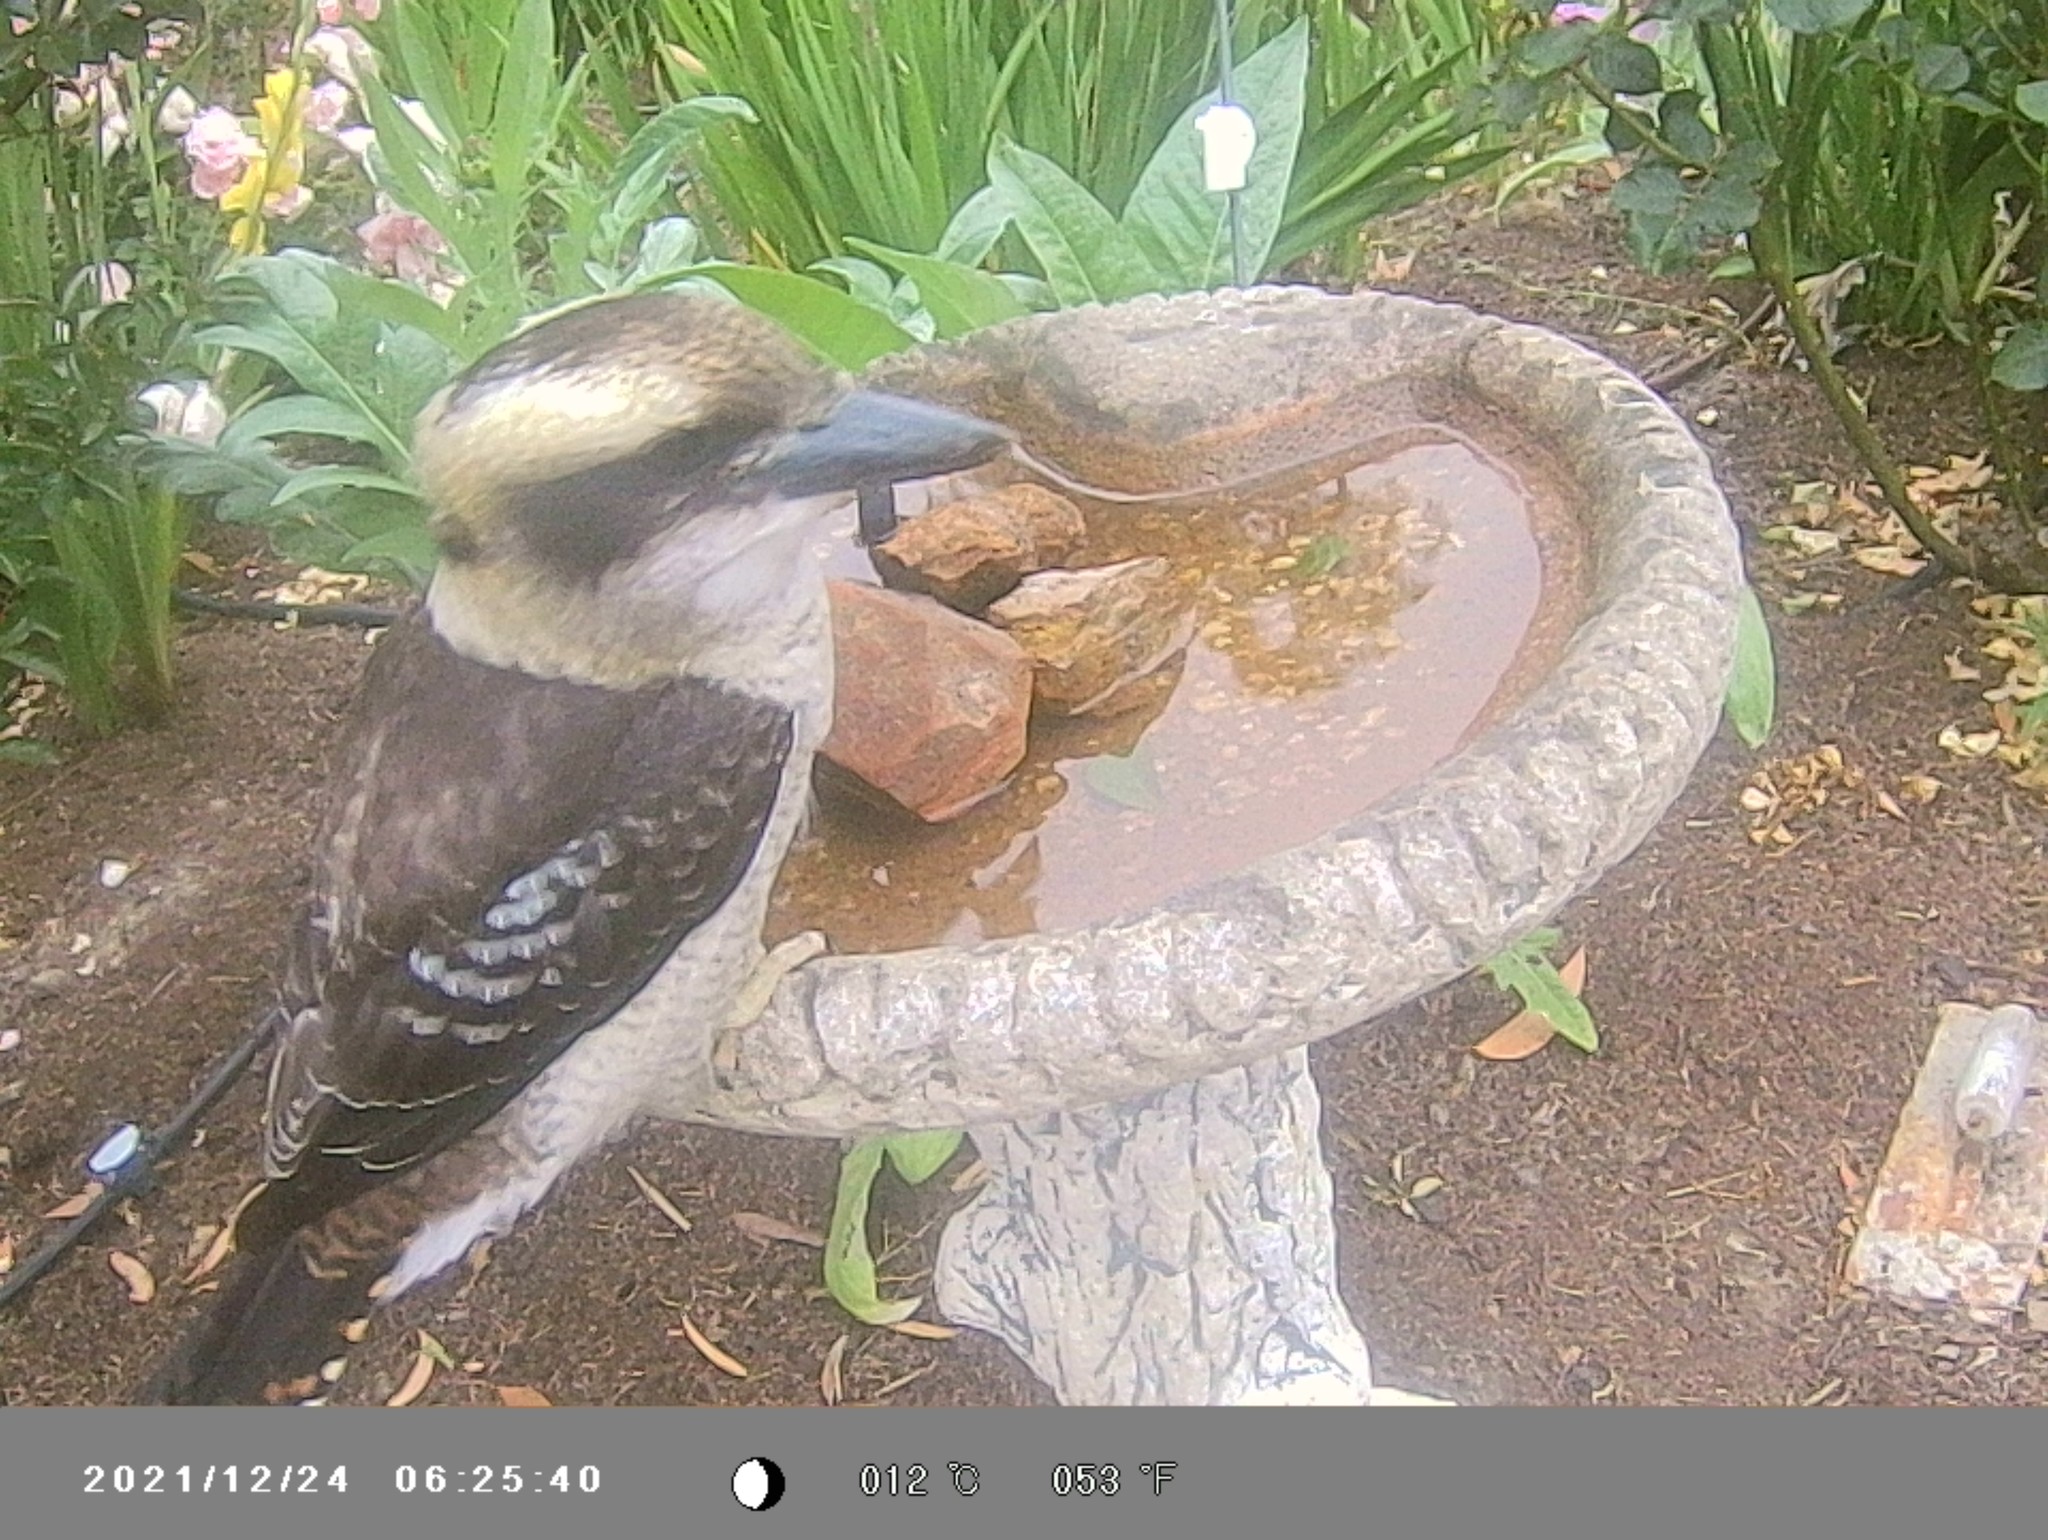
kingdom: Animalia
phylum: Chordata
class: Aves
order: Coraciiformes
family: Alcedinidae
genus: Dacelo
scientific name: Dacelo novaeguineae
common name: Laughing kookaburra
